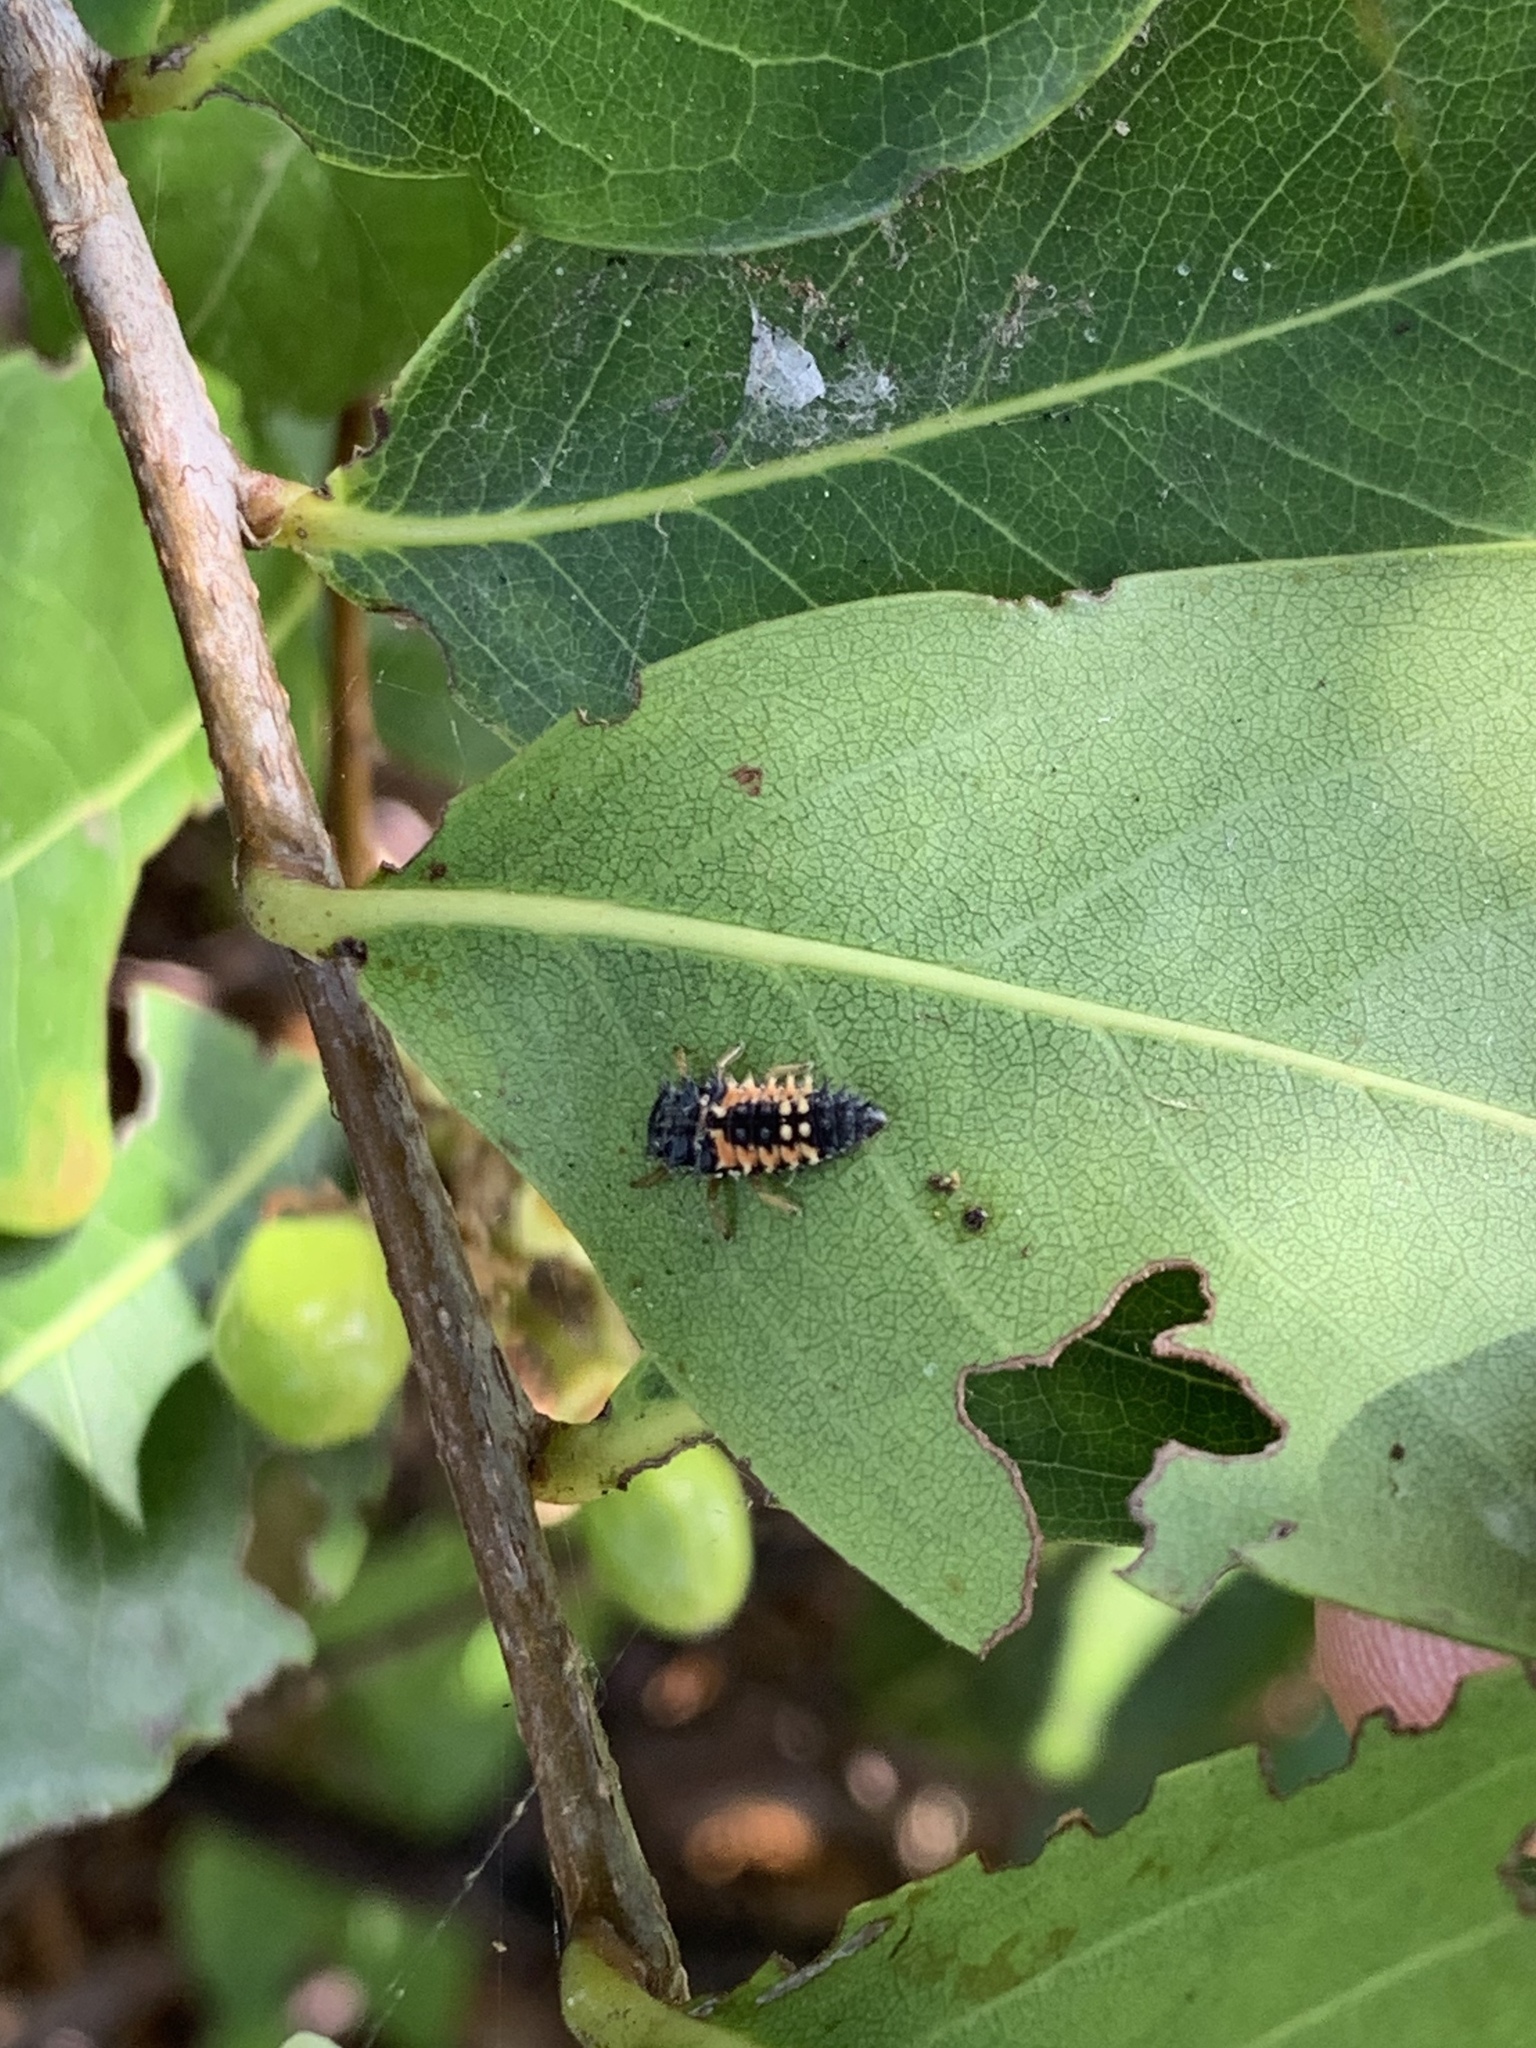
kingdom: Animalia
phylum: Arthropoda
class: Insecta
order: Coleoptera
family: Coccinellidae
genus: Harmonia
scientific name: Harmonia axyridis
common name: Harlequin ladybird
